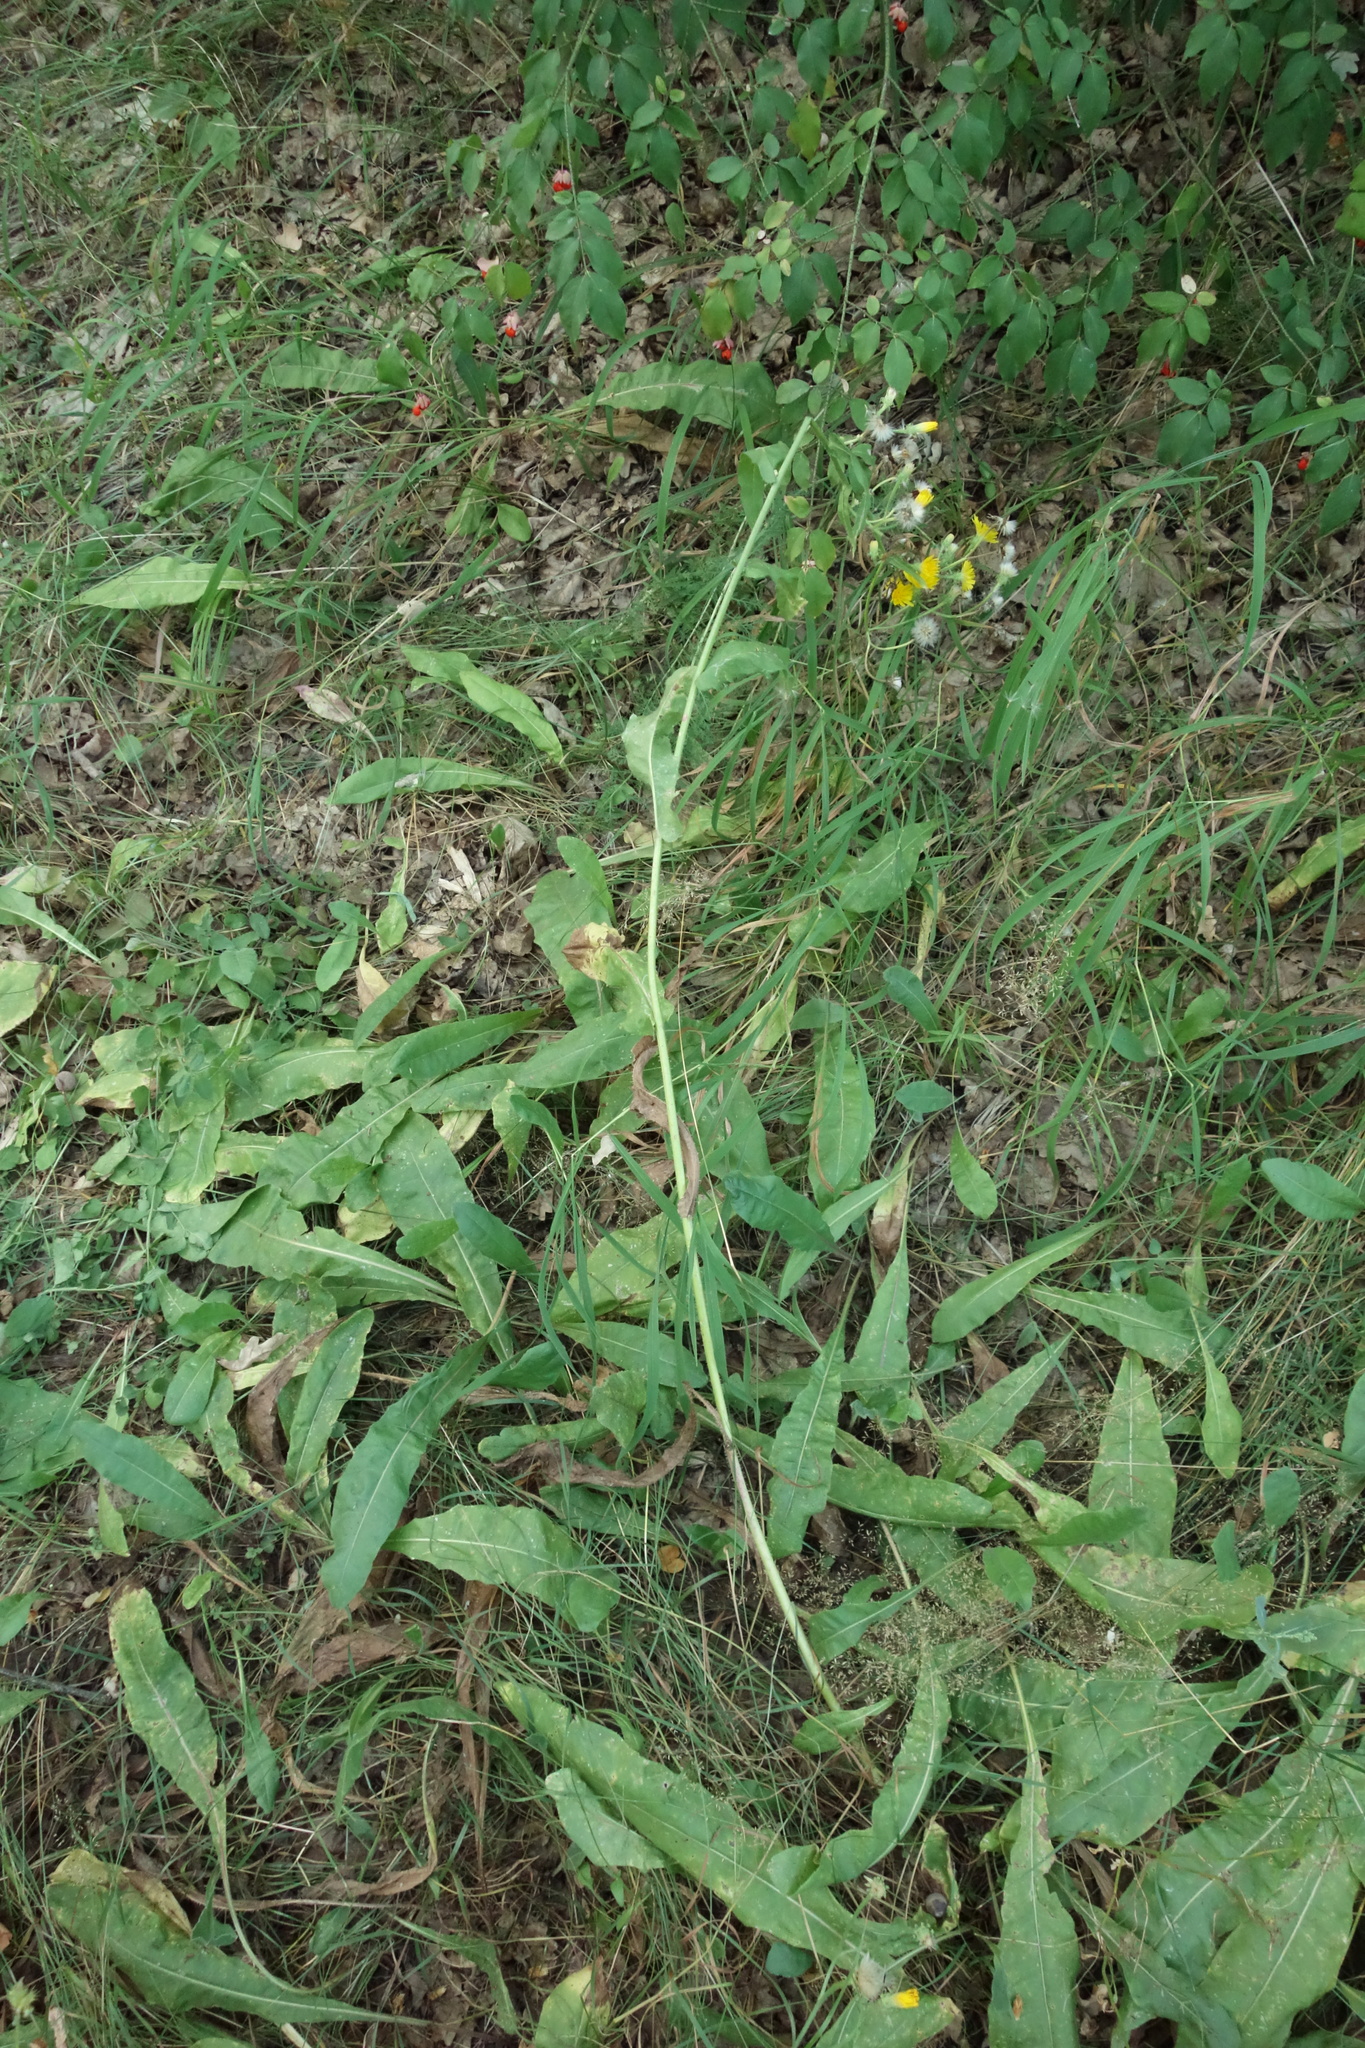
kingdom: Plantae
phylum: Tracheophyta
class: Magnoliopsida
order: Asterales
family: Asteraceae
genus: Picris
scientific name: Picris hieracioides
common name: Hawkweed oxtongue
